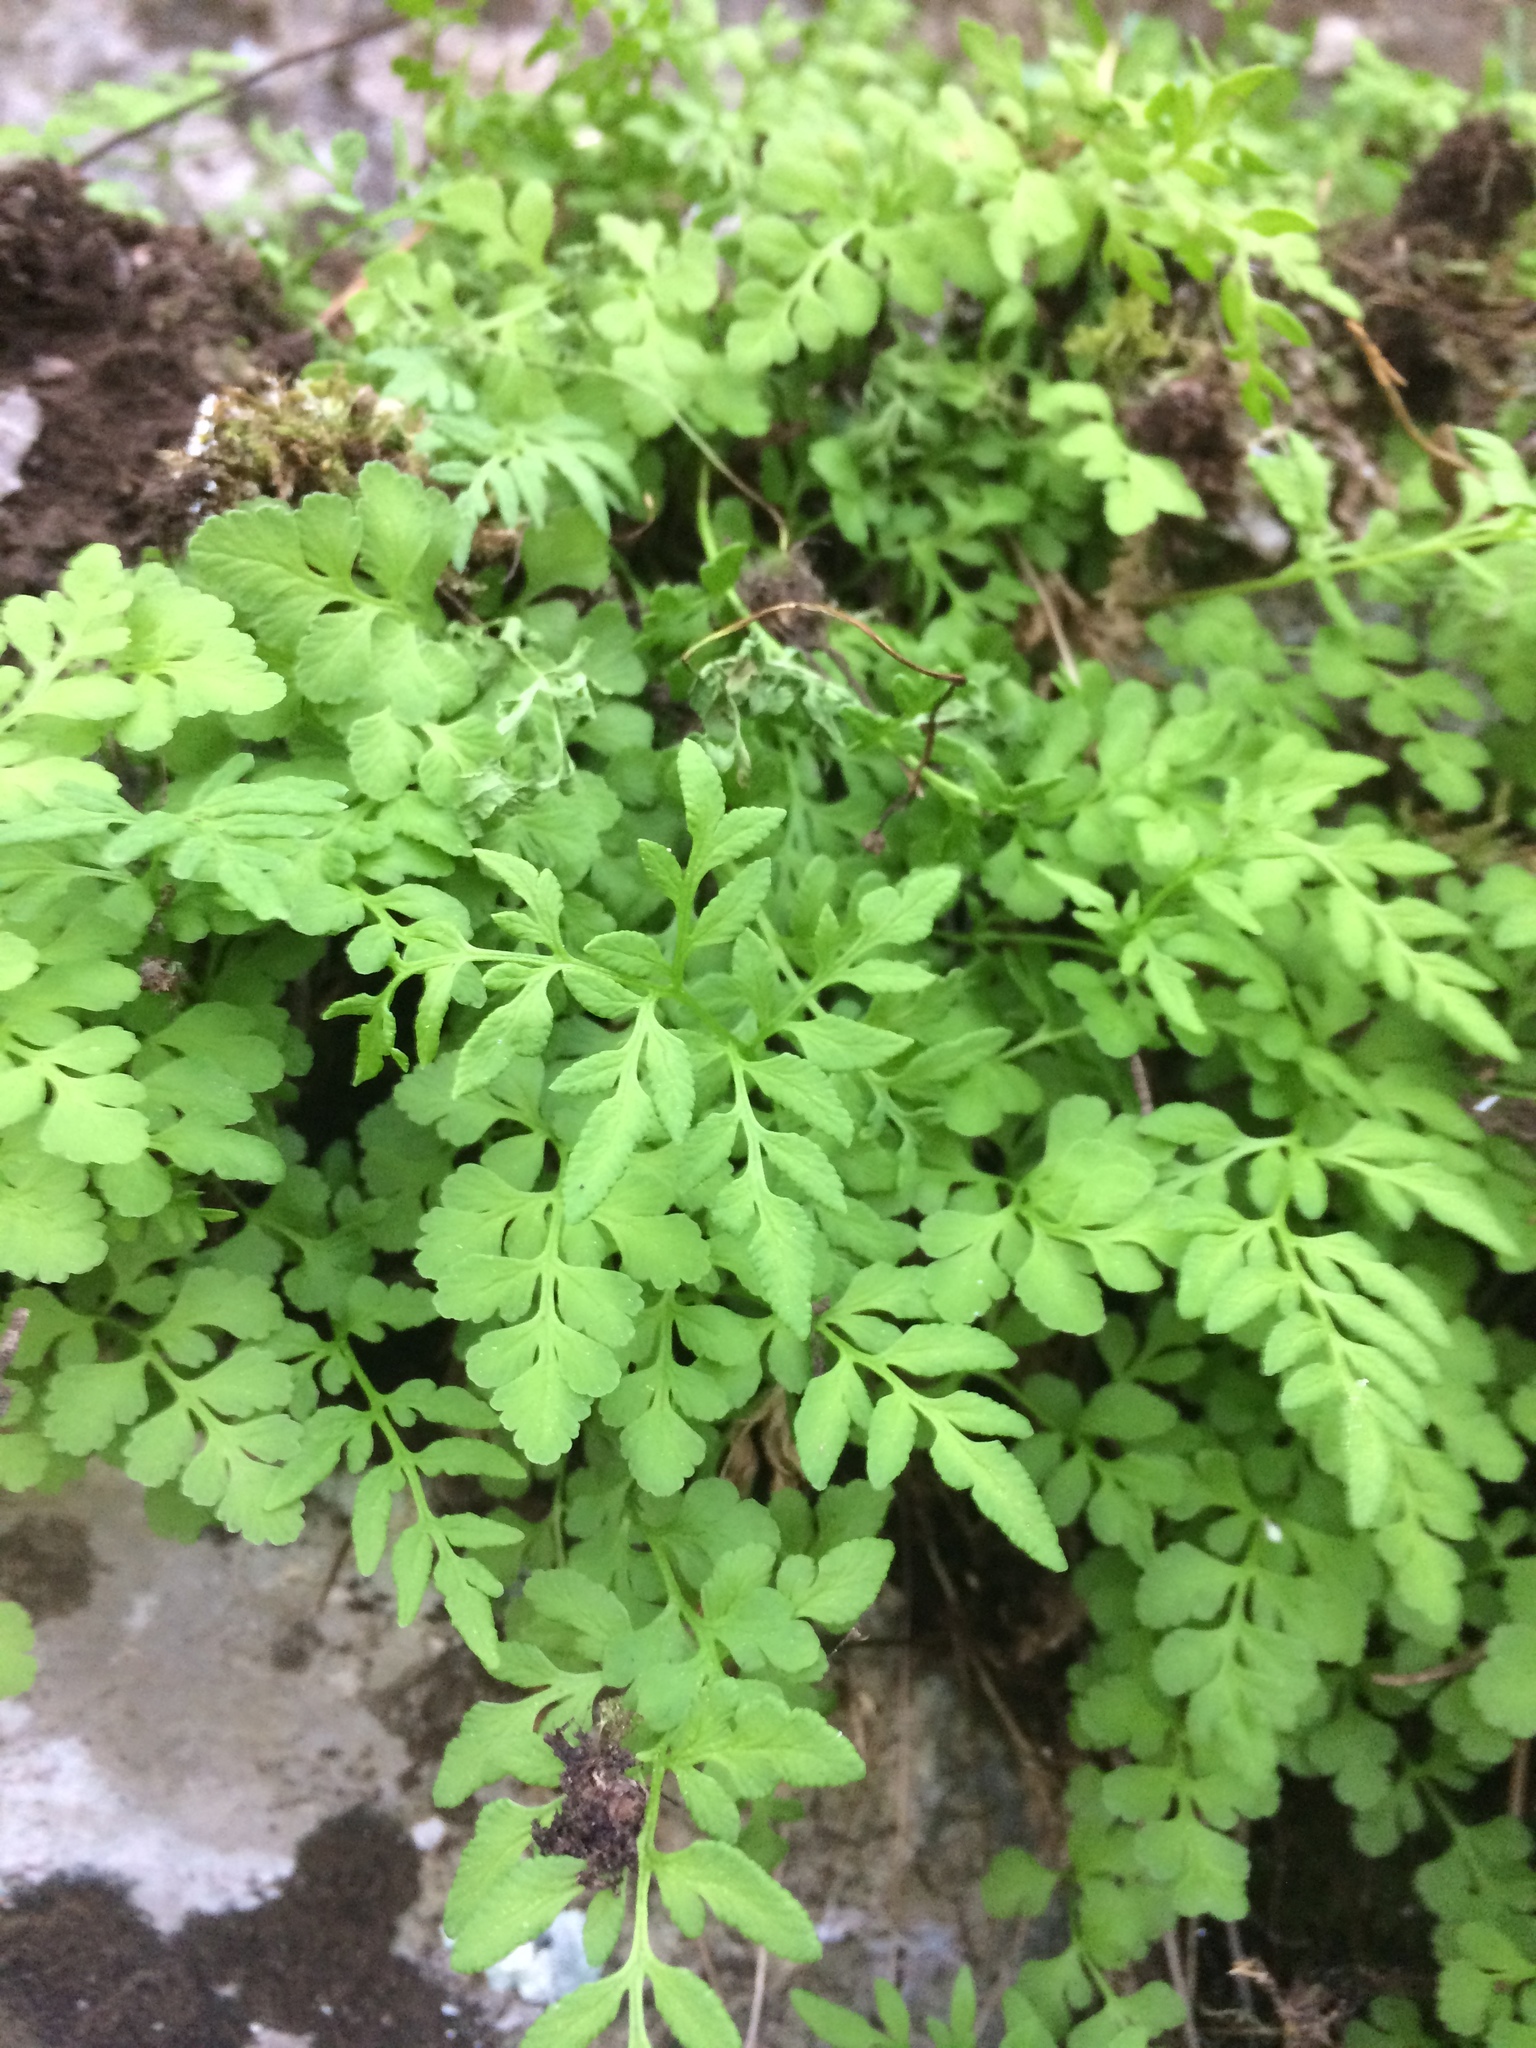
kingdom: Plantae
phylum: Tracheophyta
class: Polypodiopsida
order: Polypodiales
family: Pteridaceae
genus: Cryptogramma
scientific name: Cryptogramma stelleri
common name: Cliff-brake
